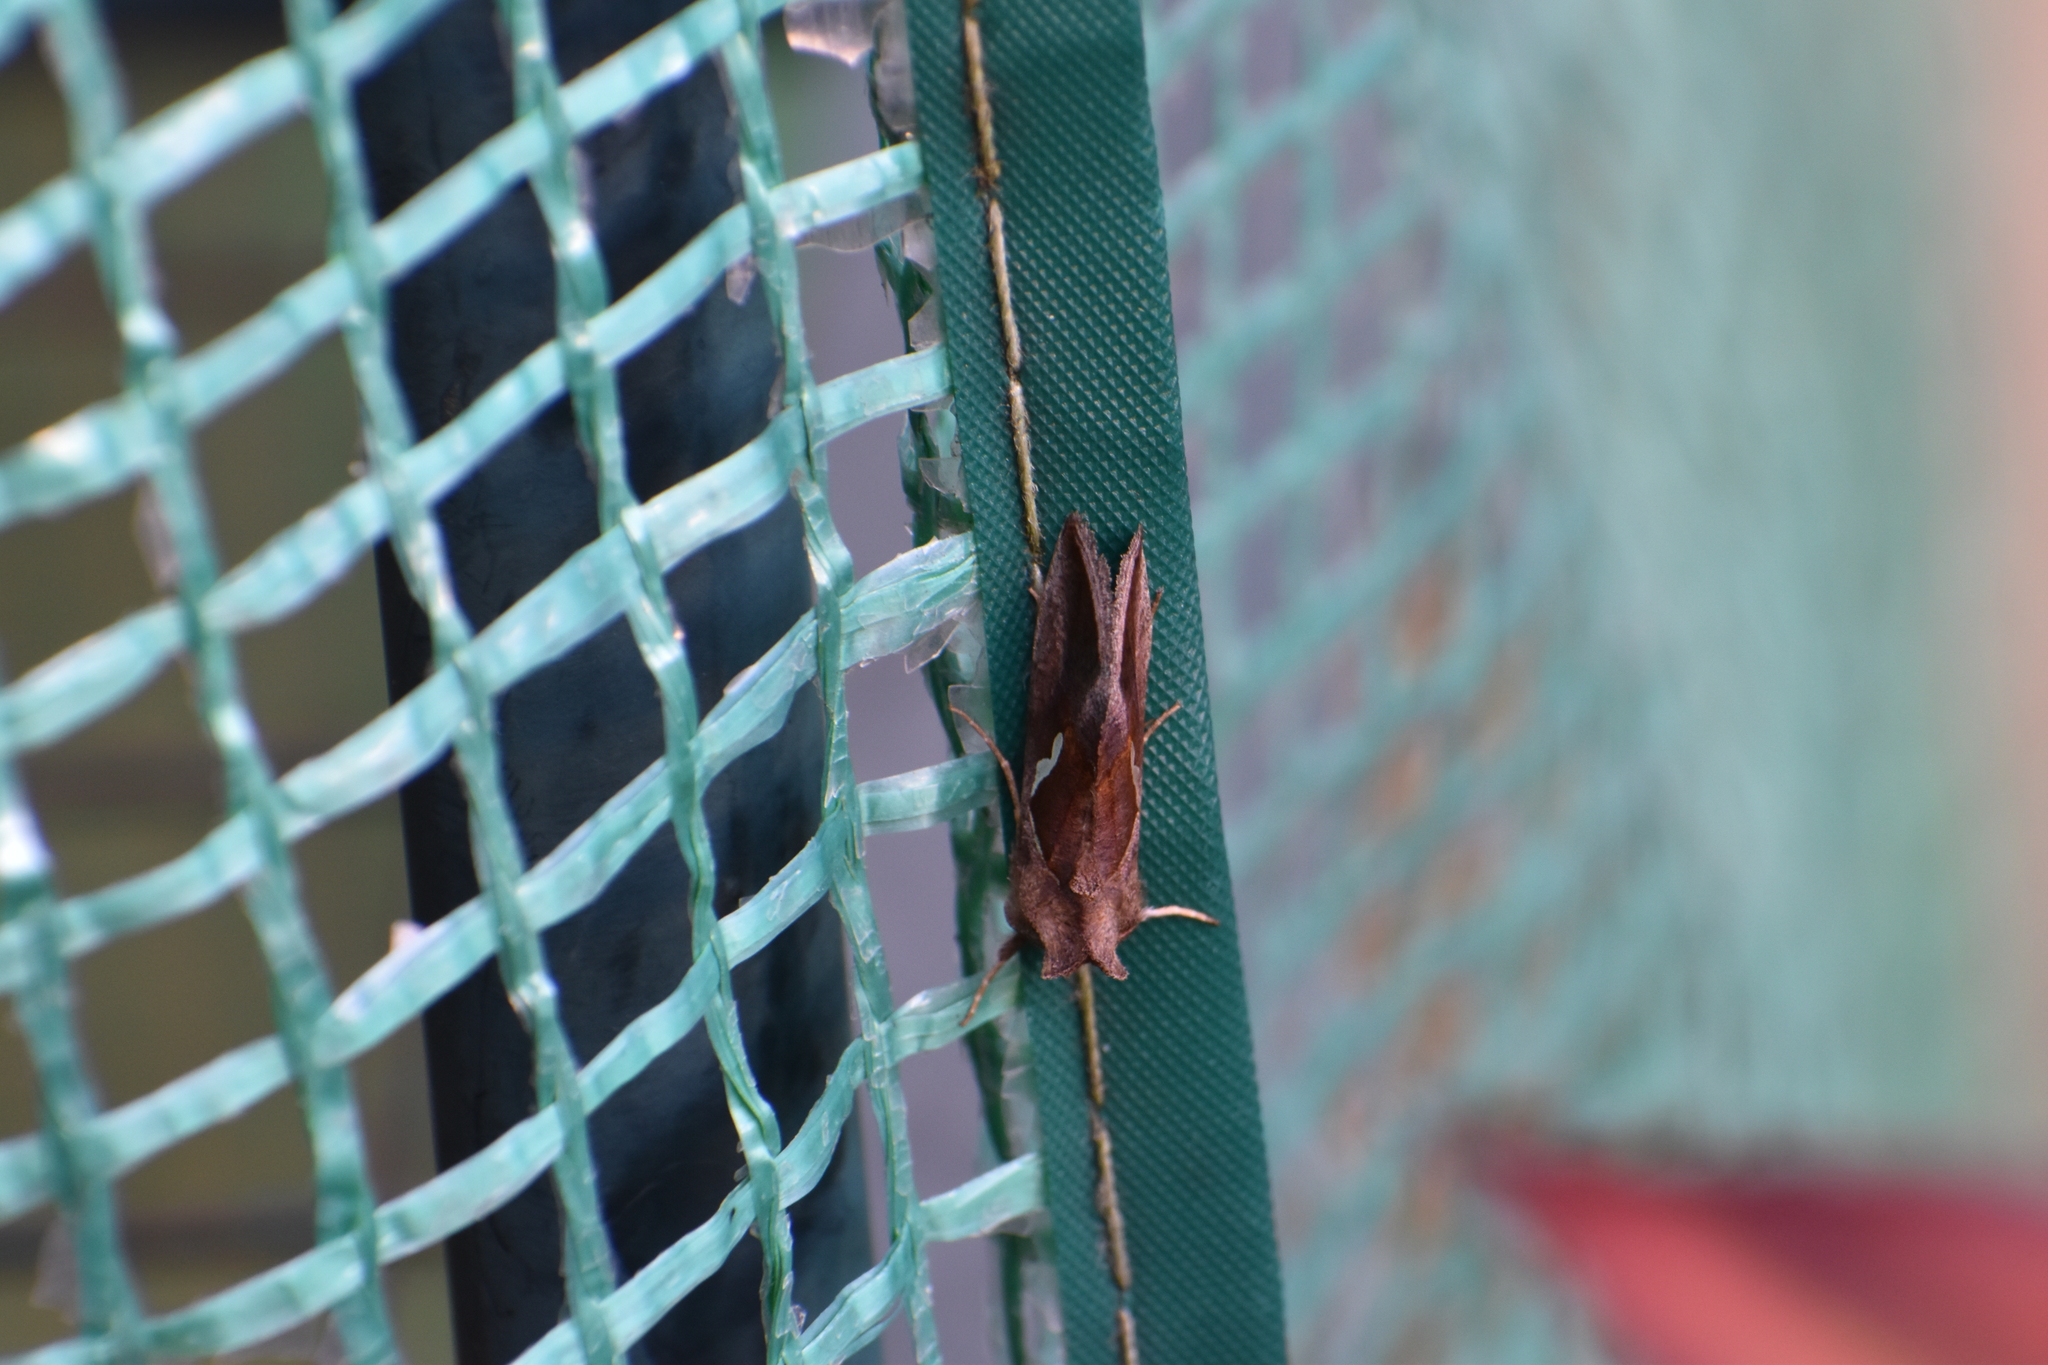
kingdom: Animalia
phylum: Arthropoda
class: Insecta
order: Lepidoptera
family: Noctuidae
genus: Macdunnoughia
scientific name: Macdunnoughia confusa
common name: Dewick's plusia
